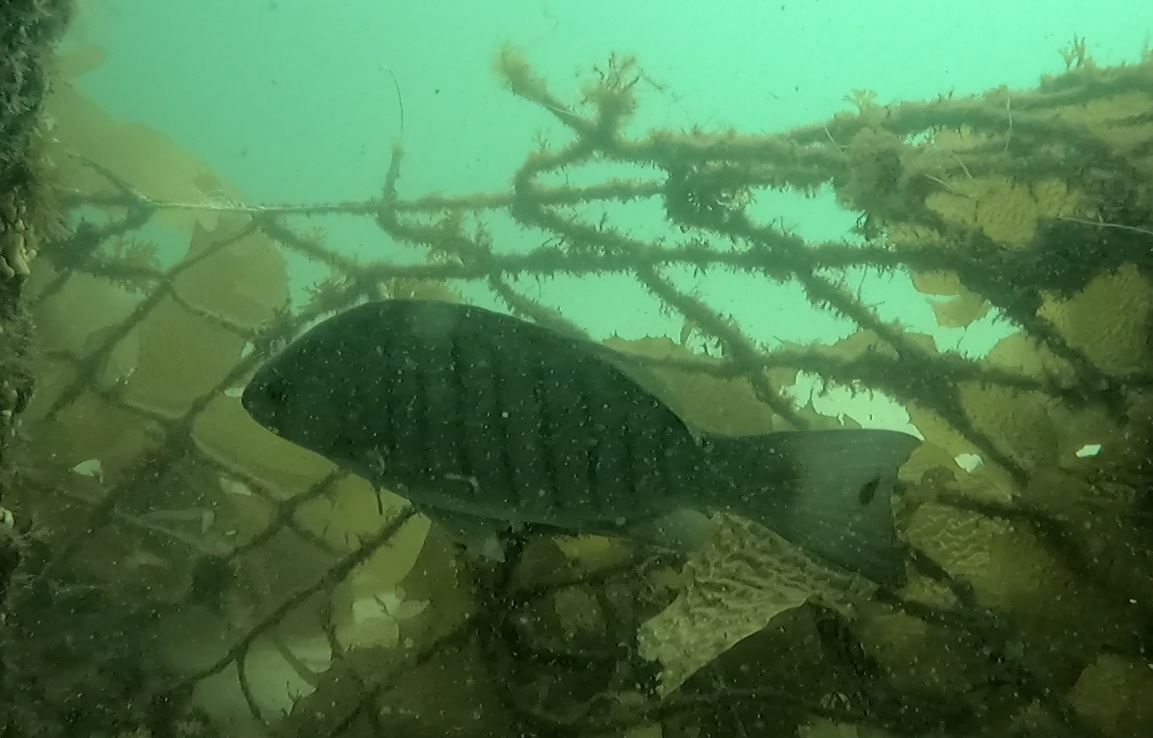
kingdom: Animalia
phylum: Chordata
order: Perciformes
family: Kyphosidae
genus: Girella
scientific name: Girella tricuspidata
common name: Parore
